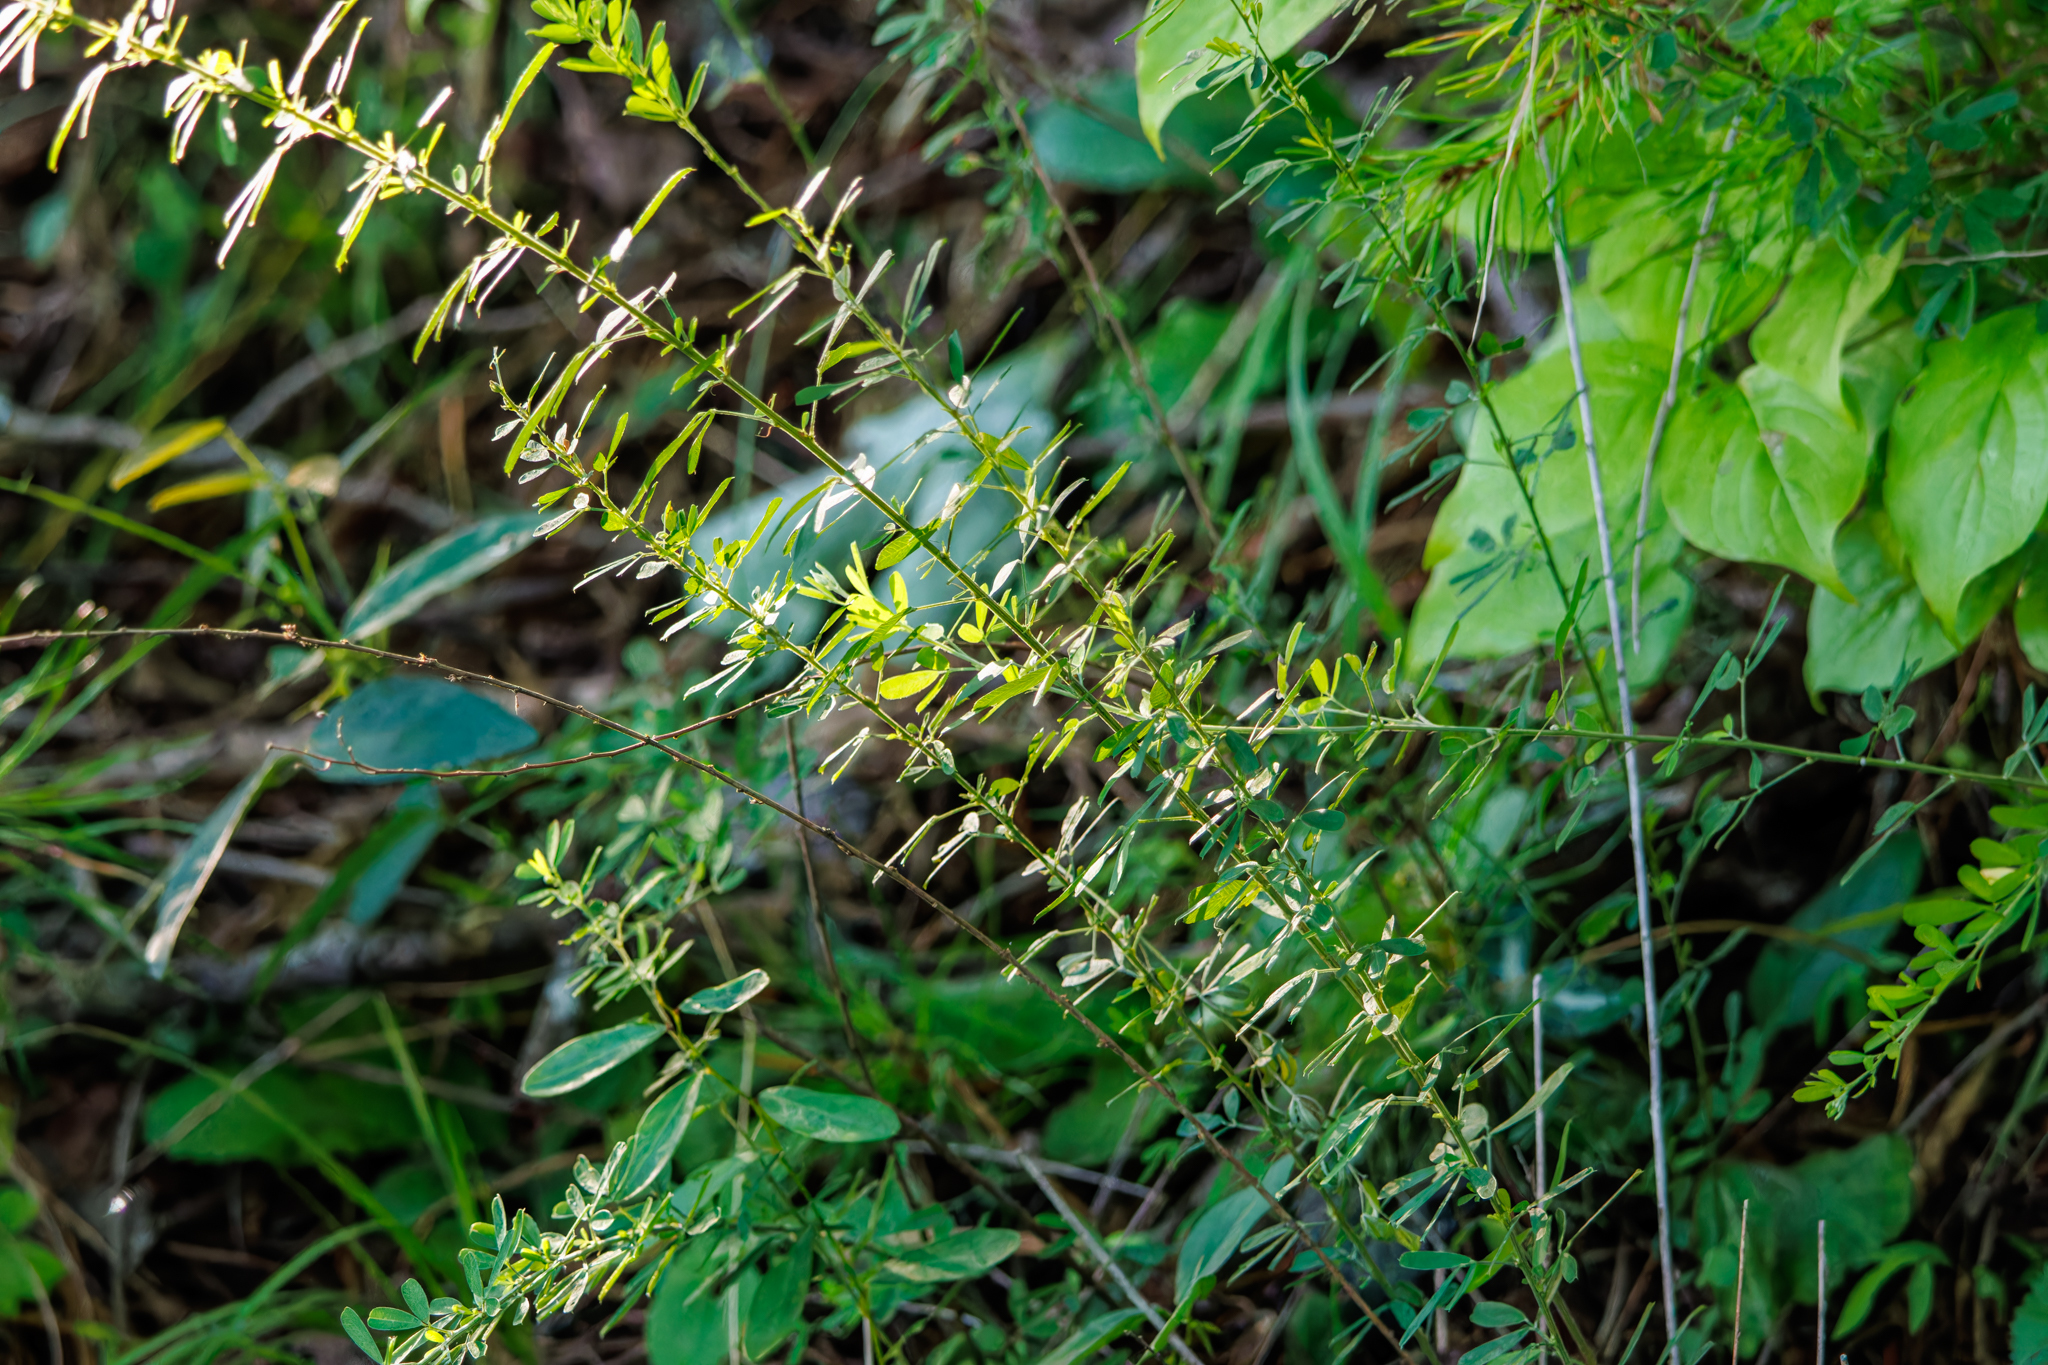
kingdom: Plantae
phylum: Tracheophyta
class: Magnoliopsida
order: Fabales
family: Fabaceae
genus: Lespedeza
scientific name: Lespedeza cuneata
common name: Chinese bush-clover
